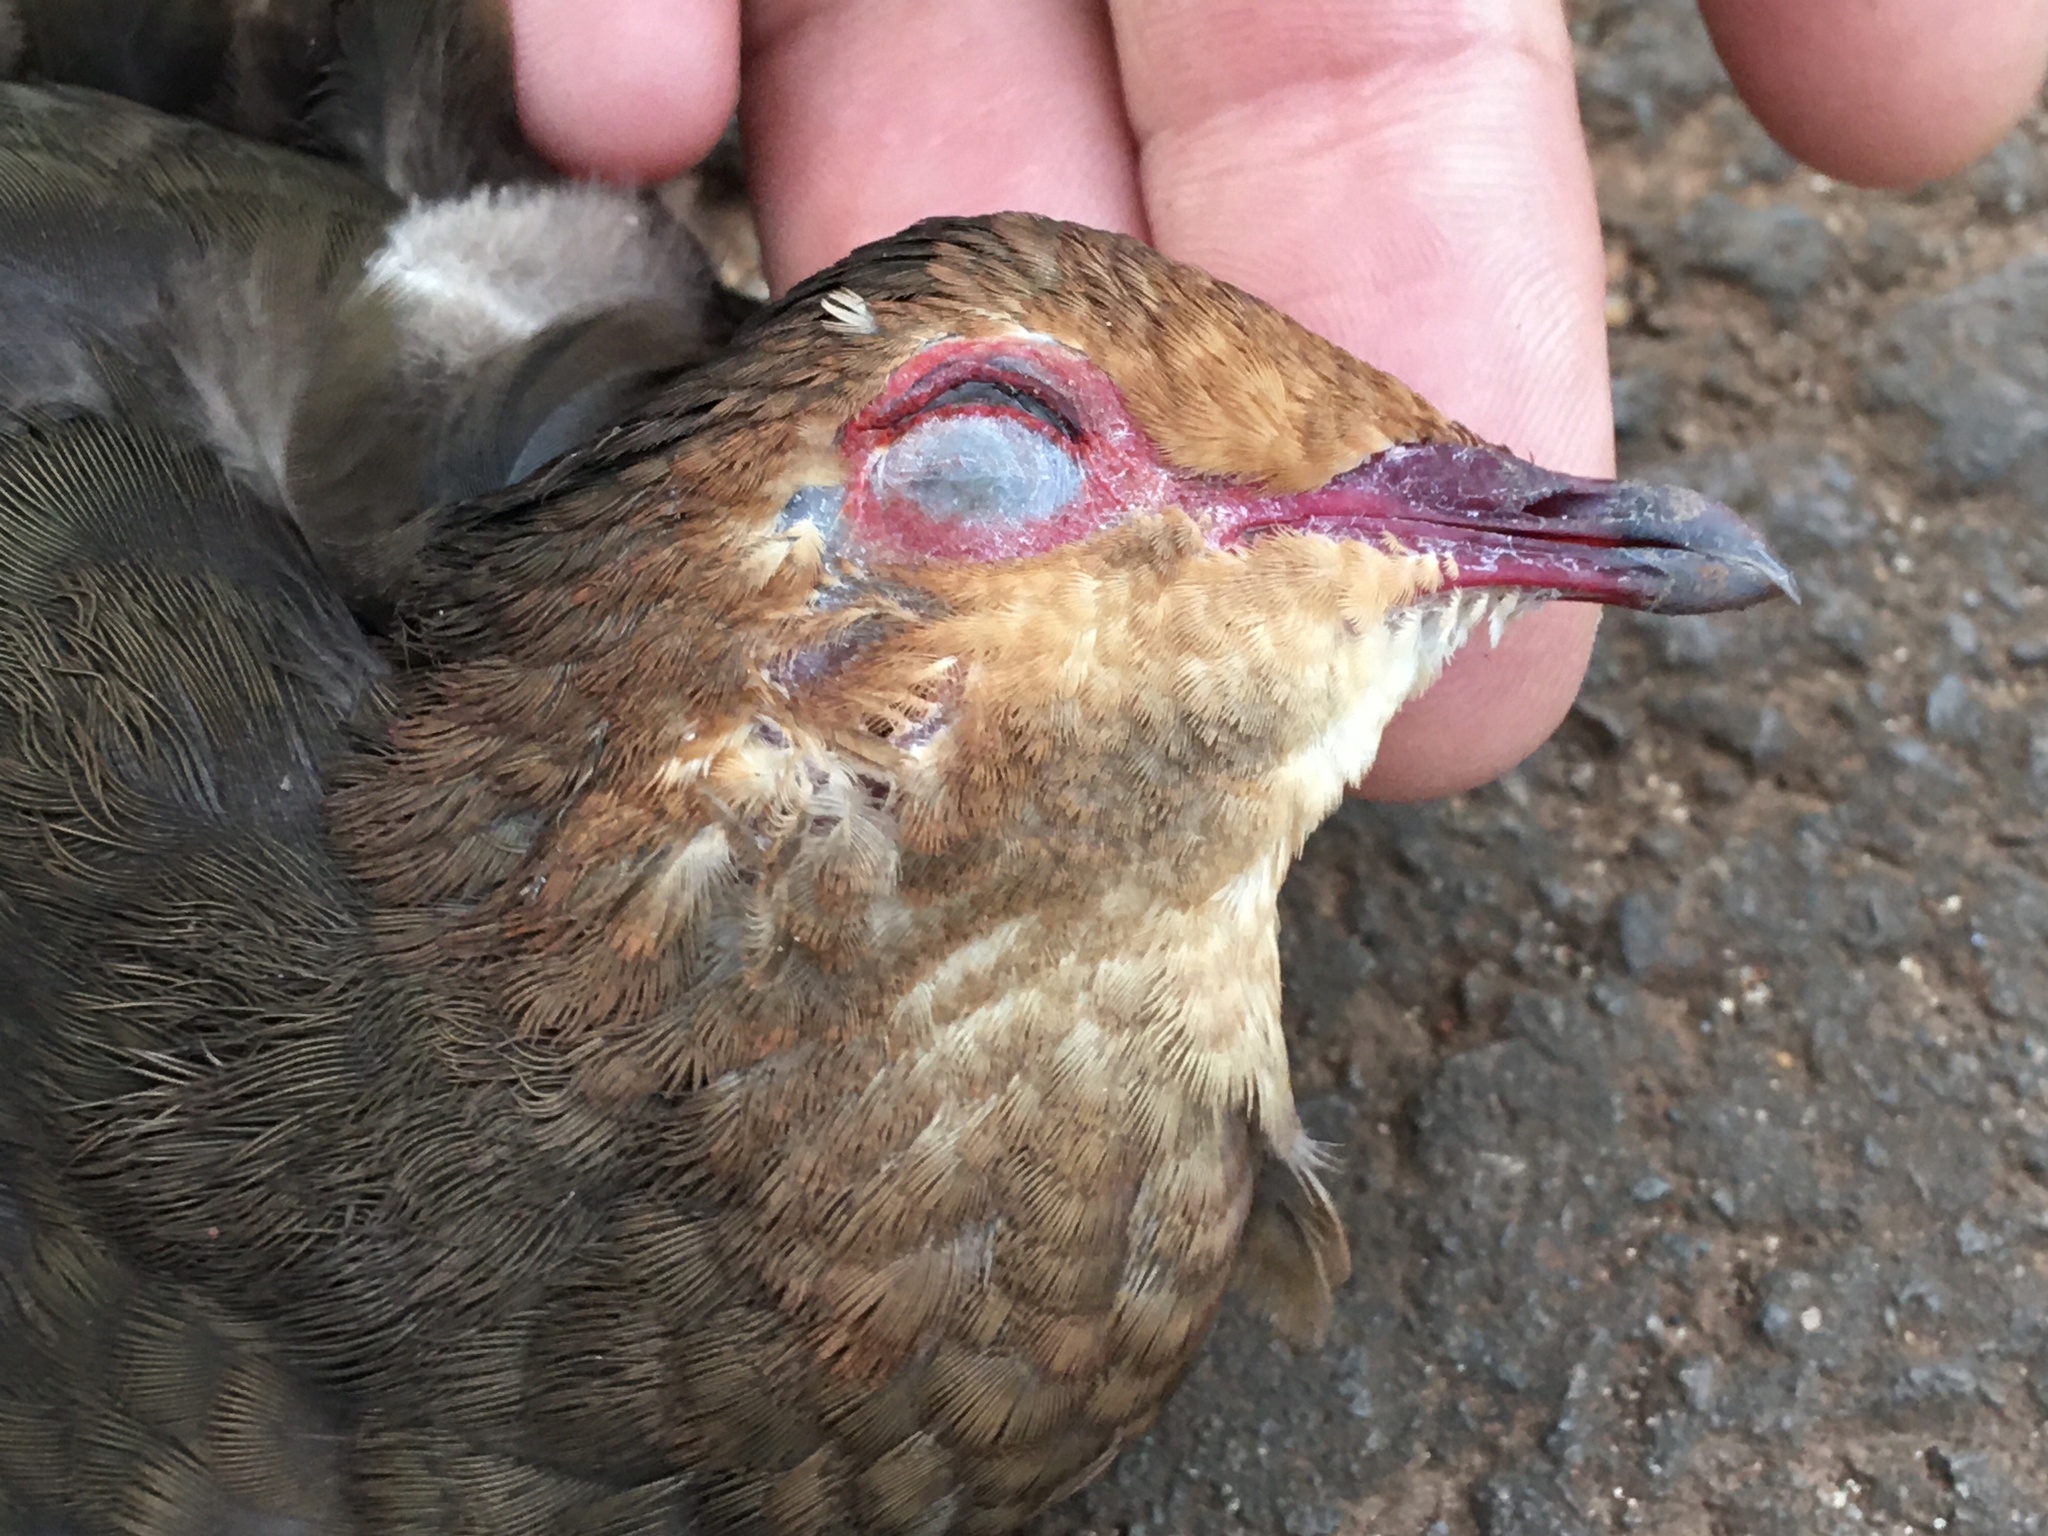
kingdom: Animalia
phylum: Chordata
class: Aves
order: Columbiformes
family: Columbidae
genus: Geotrygon
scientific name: Geotrygon montana
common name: Ruddy quail-dove
